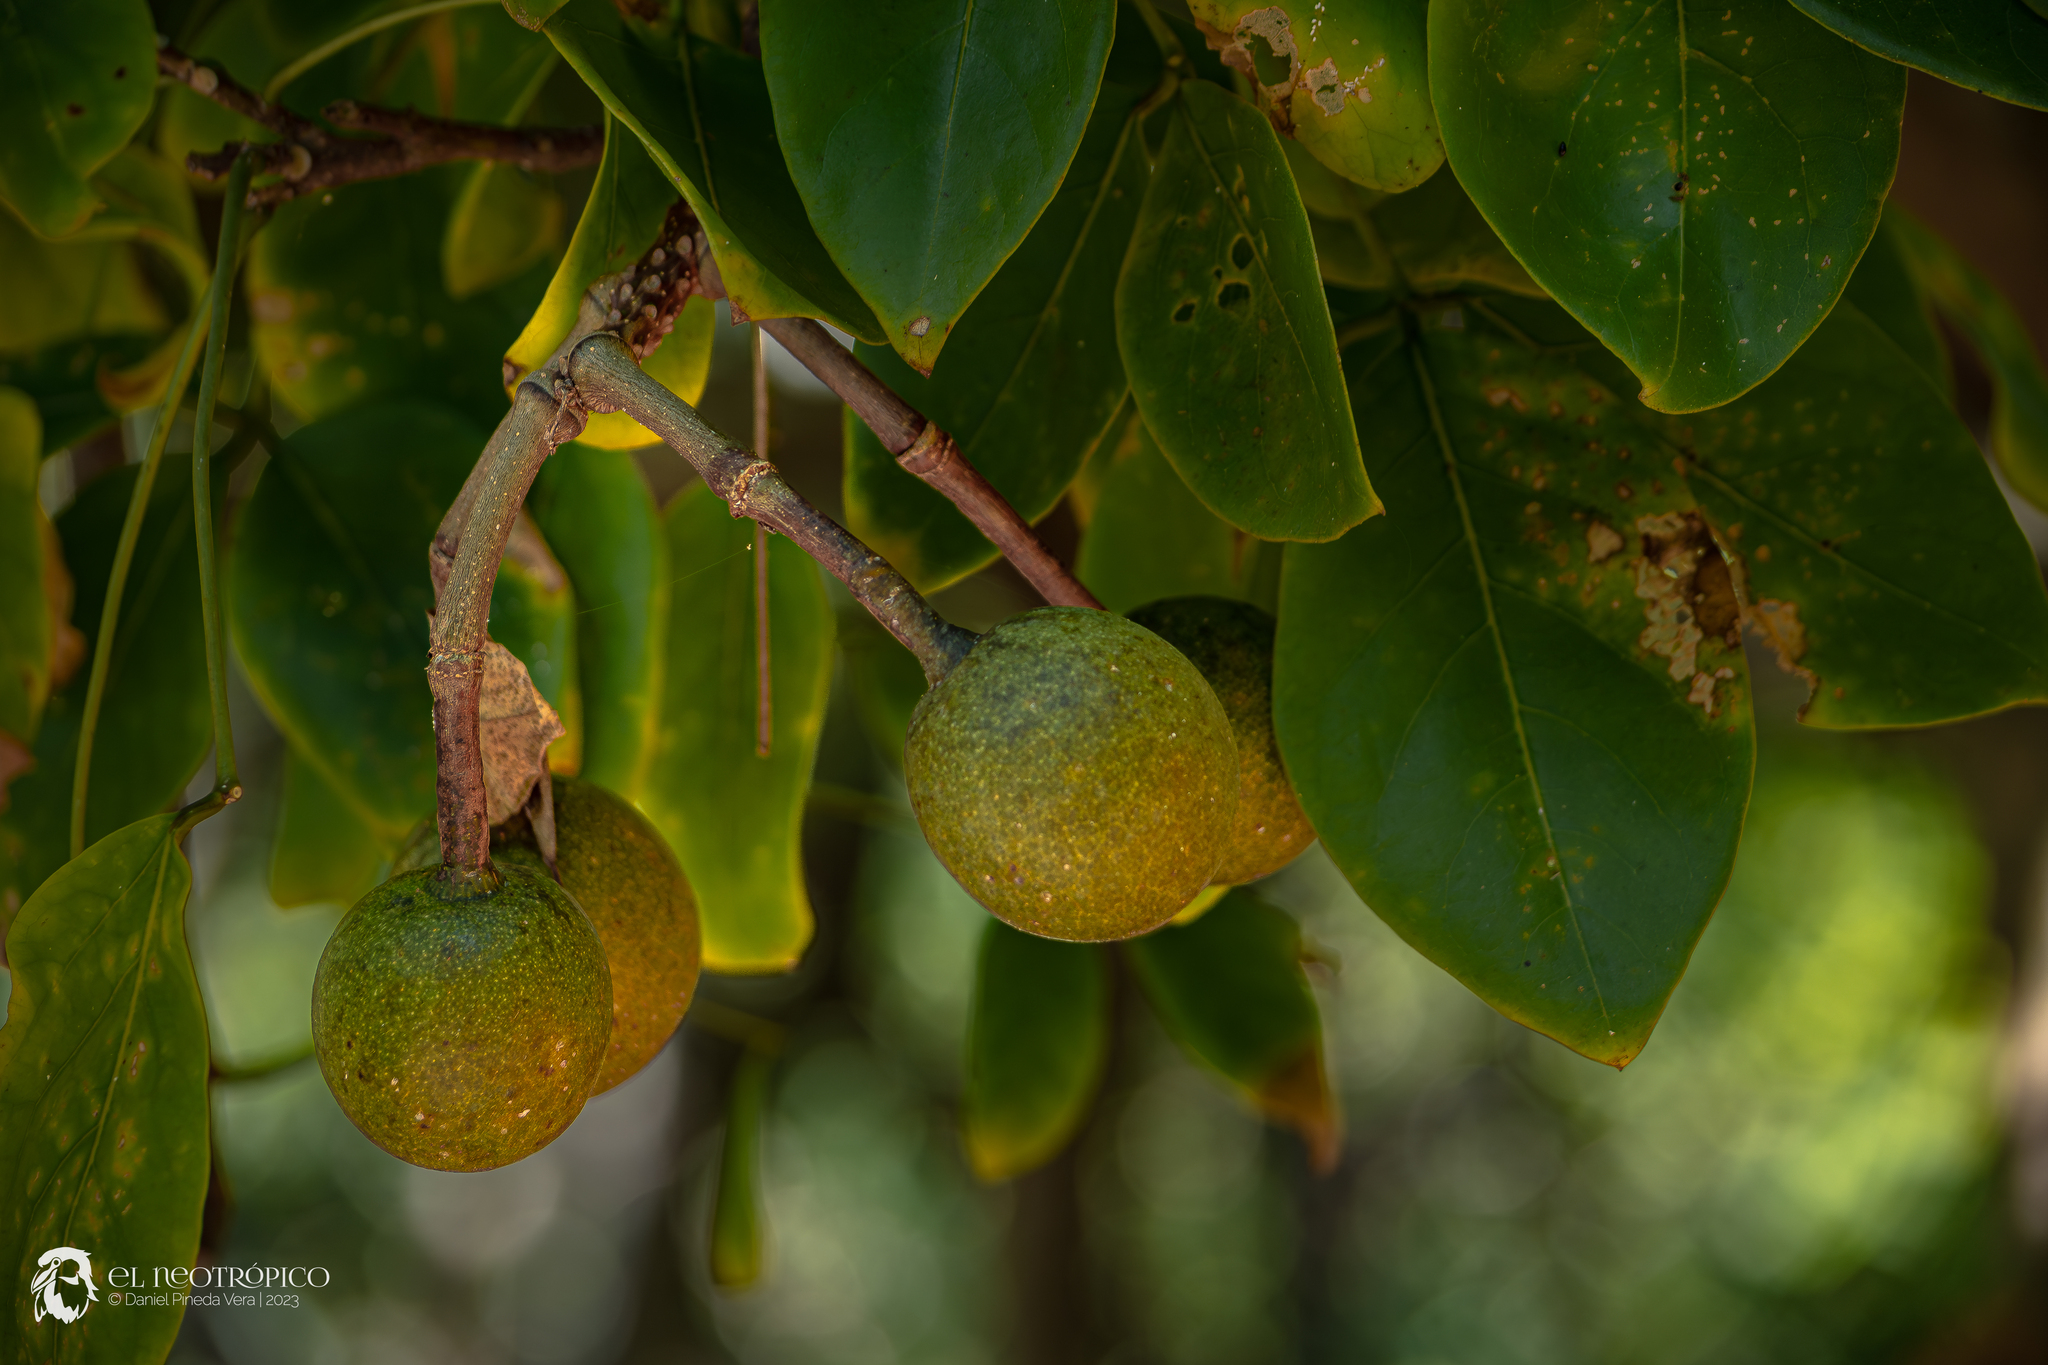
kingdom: Plantae
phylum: Tracheophyta
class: Magnoliopsida
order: Brassicales
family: Capparaceae
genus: Crateva
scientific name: Crateva tapia
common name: Garlic-pear
